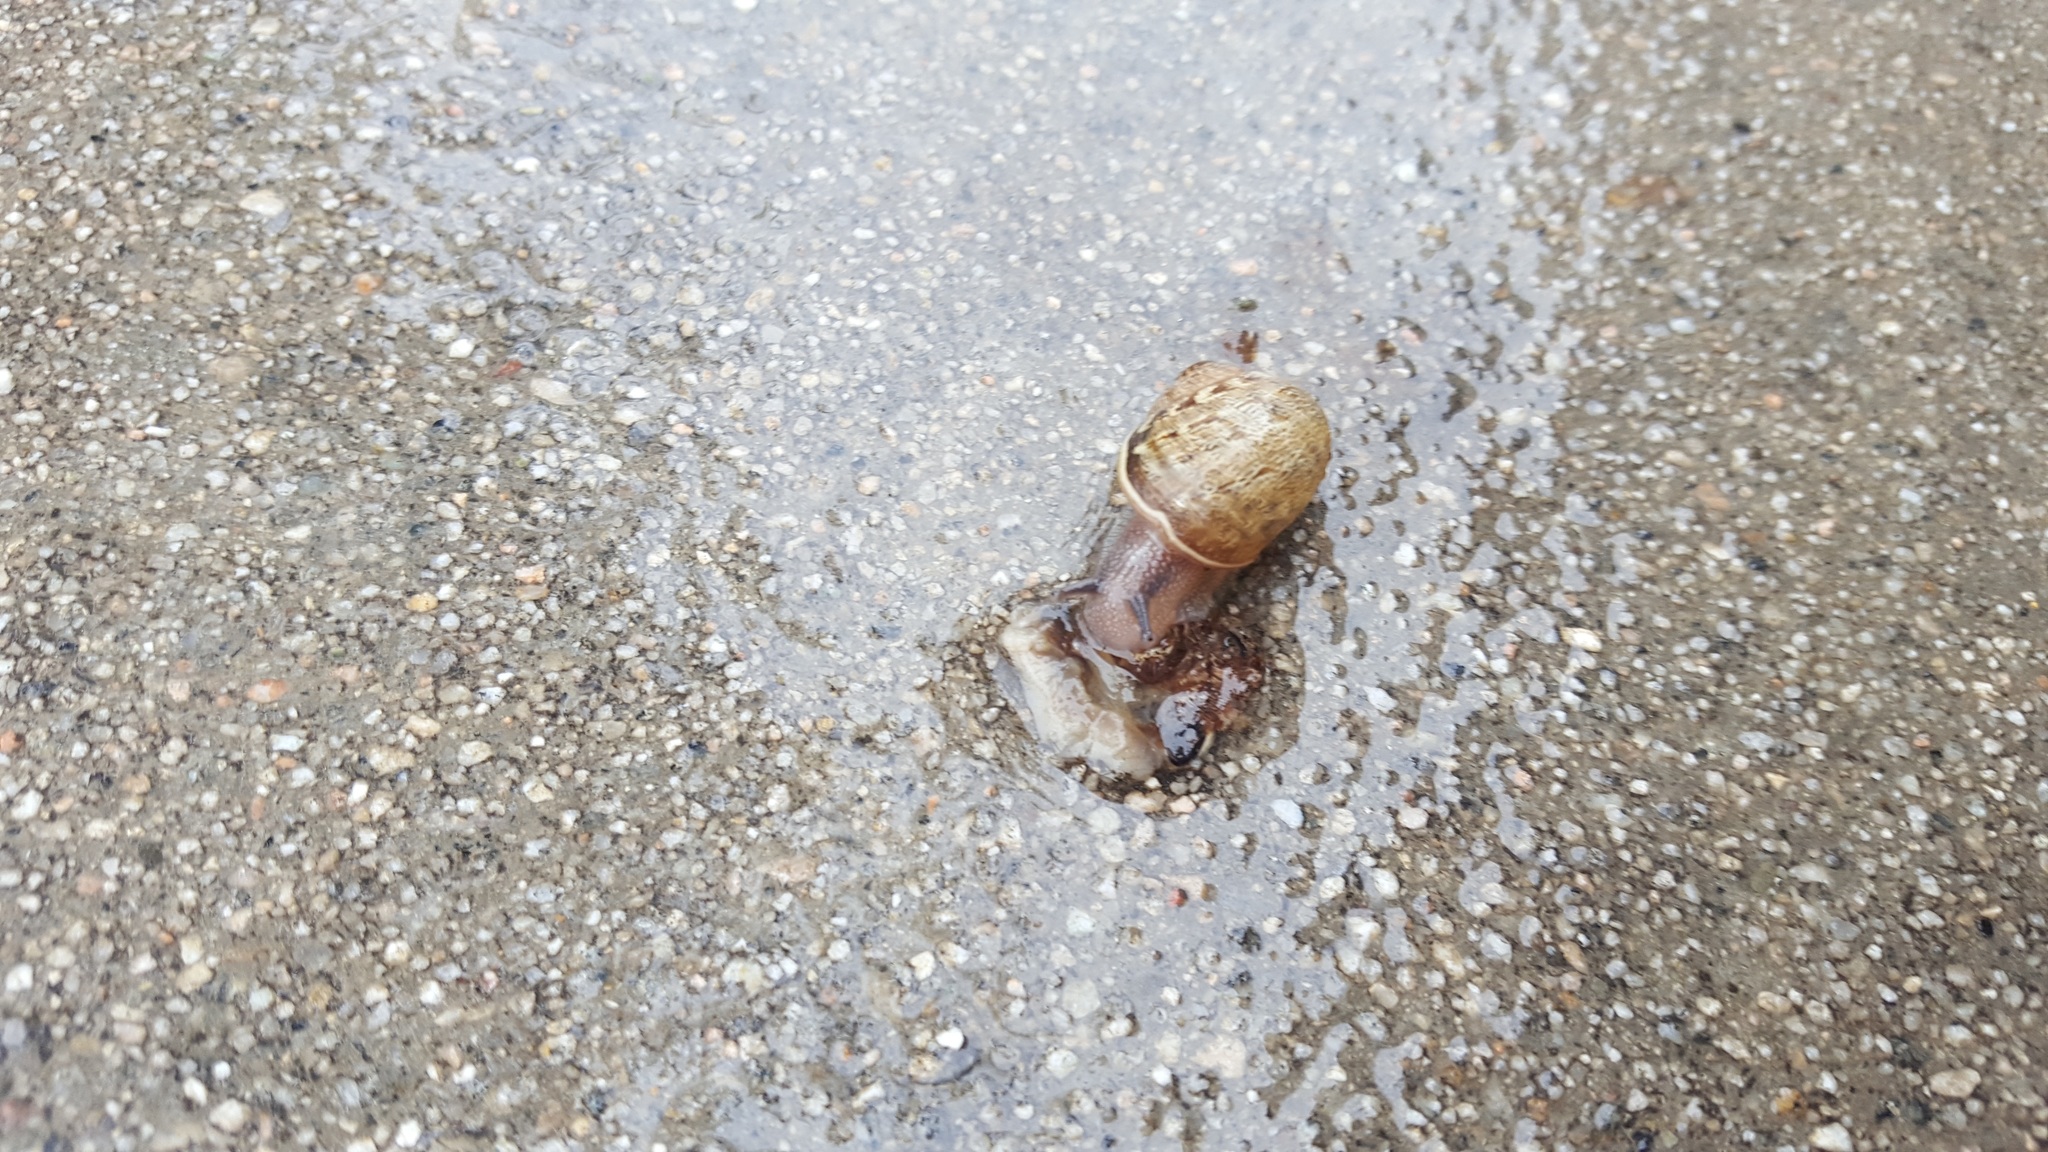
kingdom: Animalia
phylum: Mollusca
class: Gastropoda
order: Stylommatophora
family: Helicidae
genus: Cornu
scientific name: Cornu aspersum
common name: Brown garden snail
